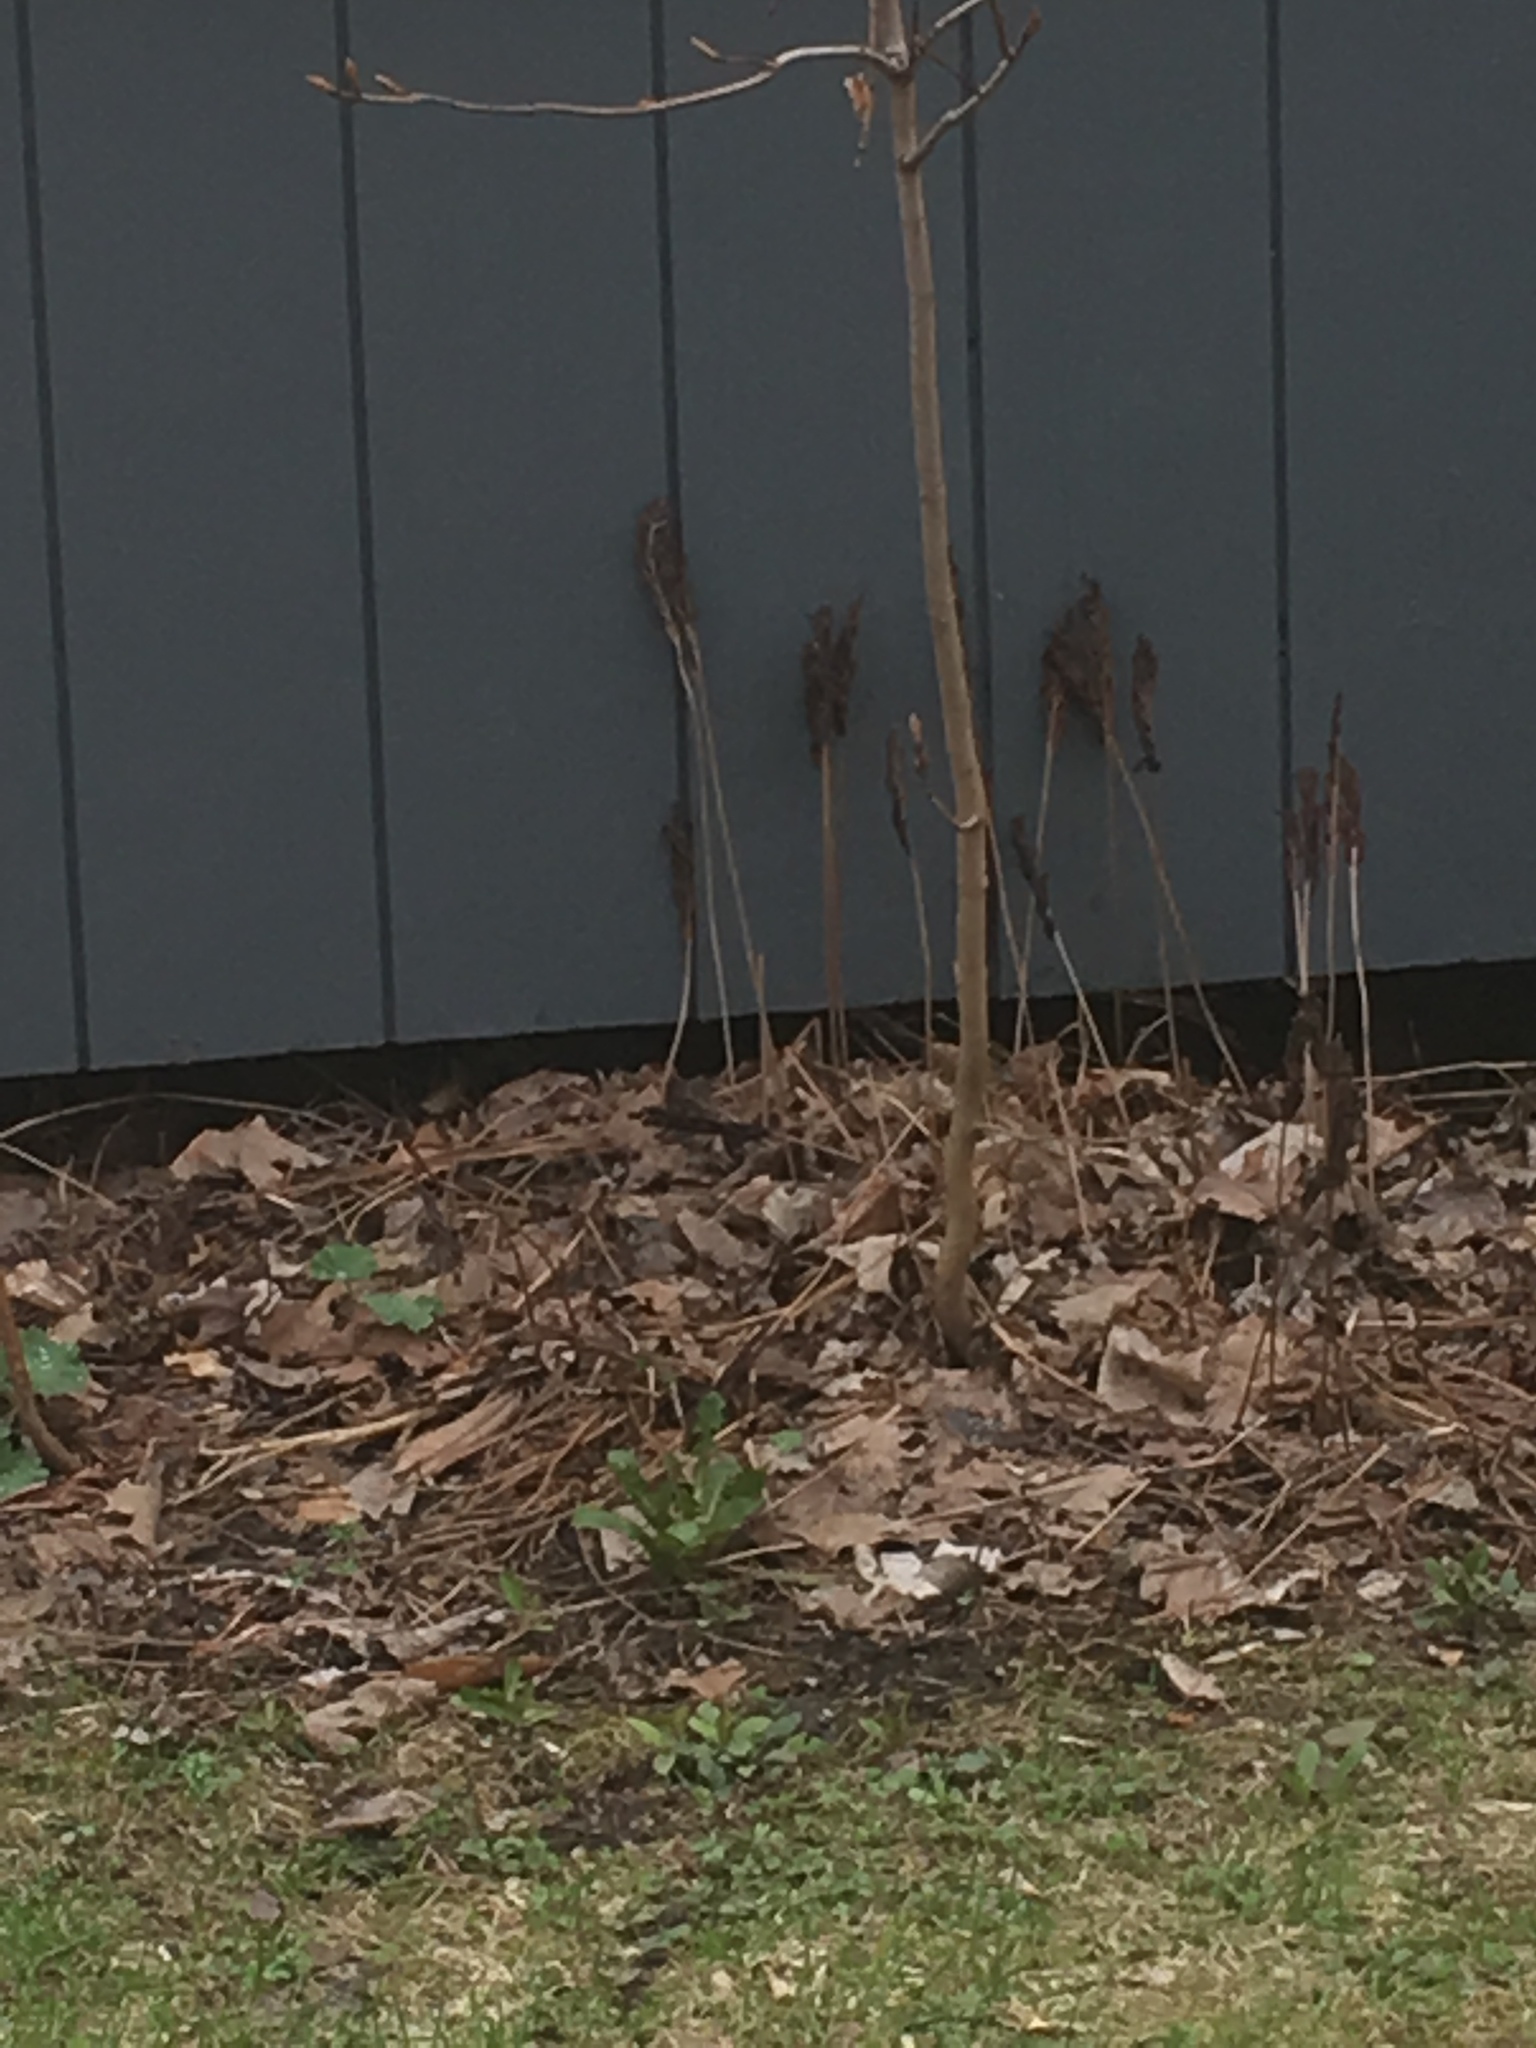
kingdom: Plantae
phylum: Tracheophyta
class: Polypodiopsida
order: Polypodiales
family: Onocleaceae
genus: Onoclea
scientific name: Onoclea sensibilis
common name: Sensitive fern
